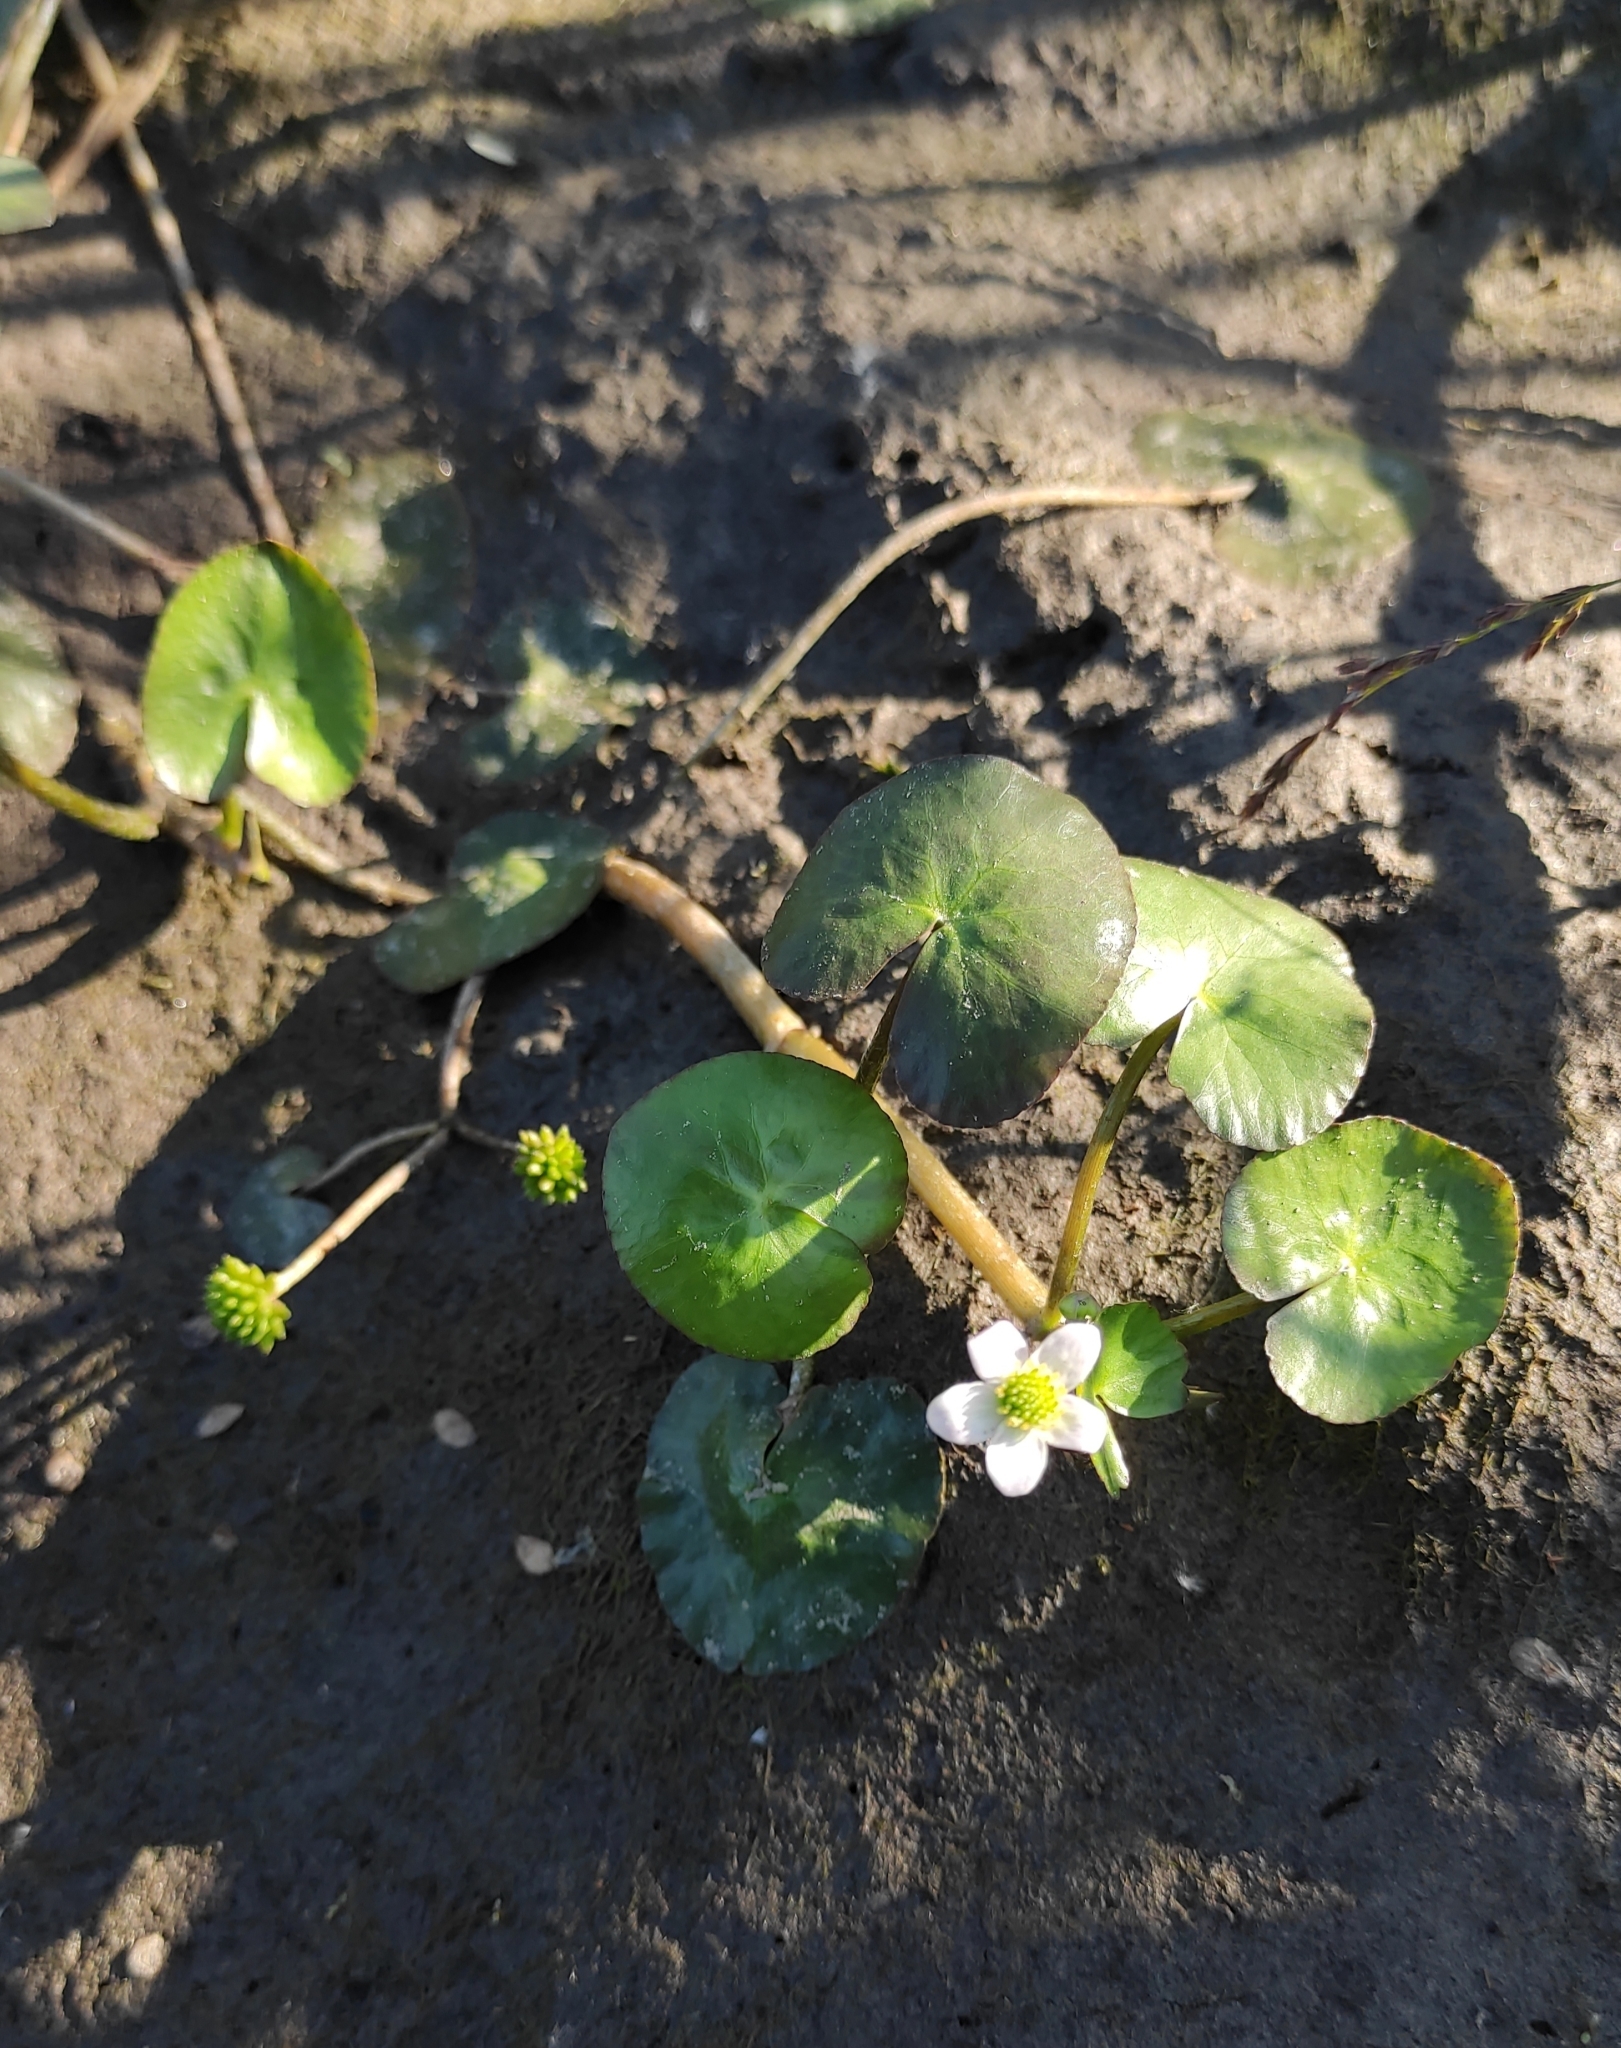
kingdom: Plantae
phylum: Tracheophyta
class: Magnoliopsida
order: Ranunculales
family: Ranunculaceae
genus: Caltha
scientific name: Caltha natans
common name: Floating marsh marigold
